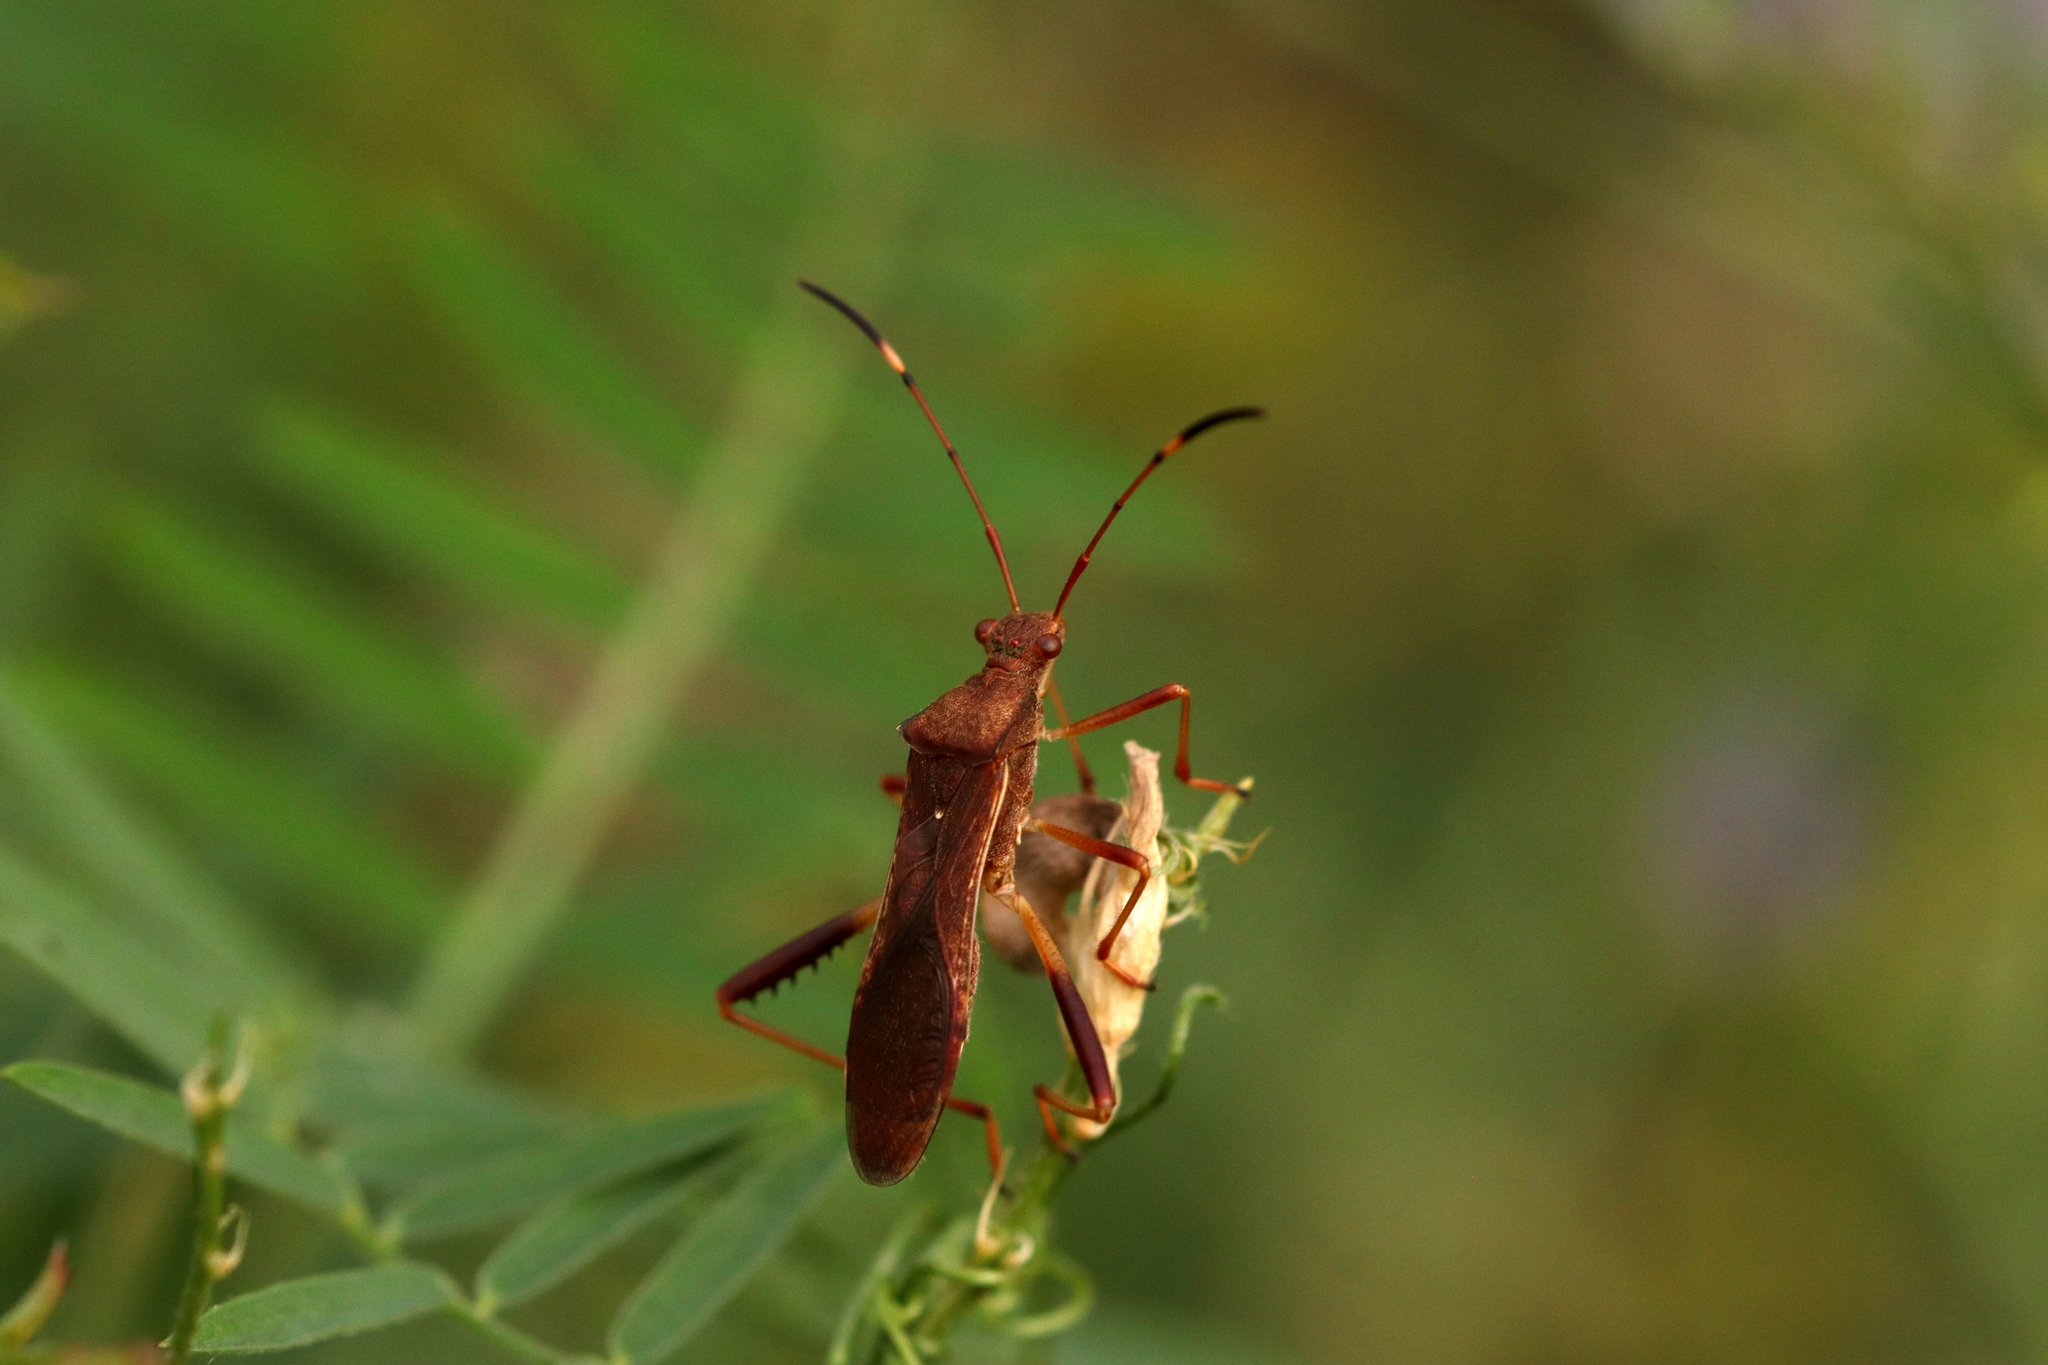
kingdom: Animalia
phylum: Arthropoda
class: Insecta
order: Hemiptera
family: Alydidae
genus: Megalotomus
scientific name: Megalotomus quinquespinosus
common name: Lupine bug
